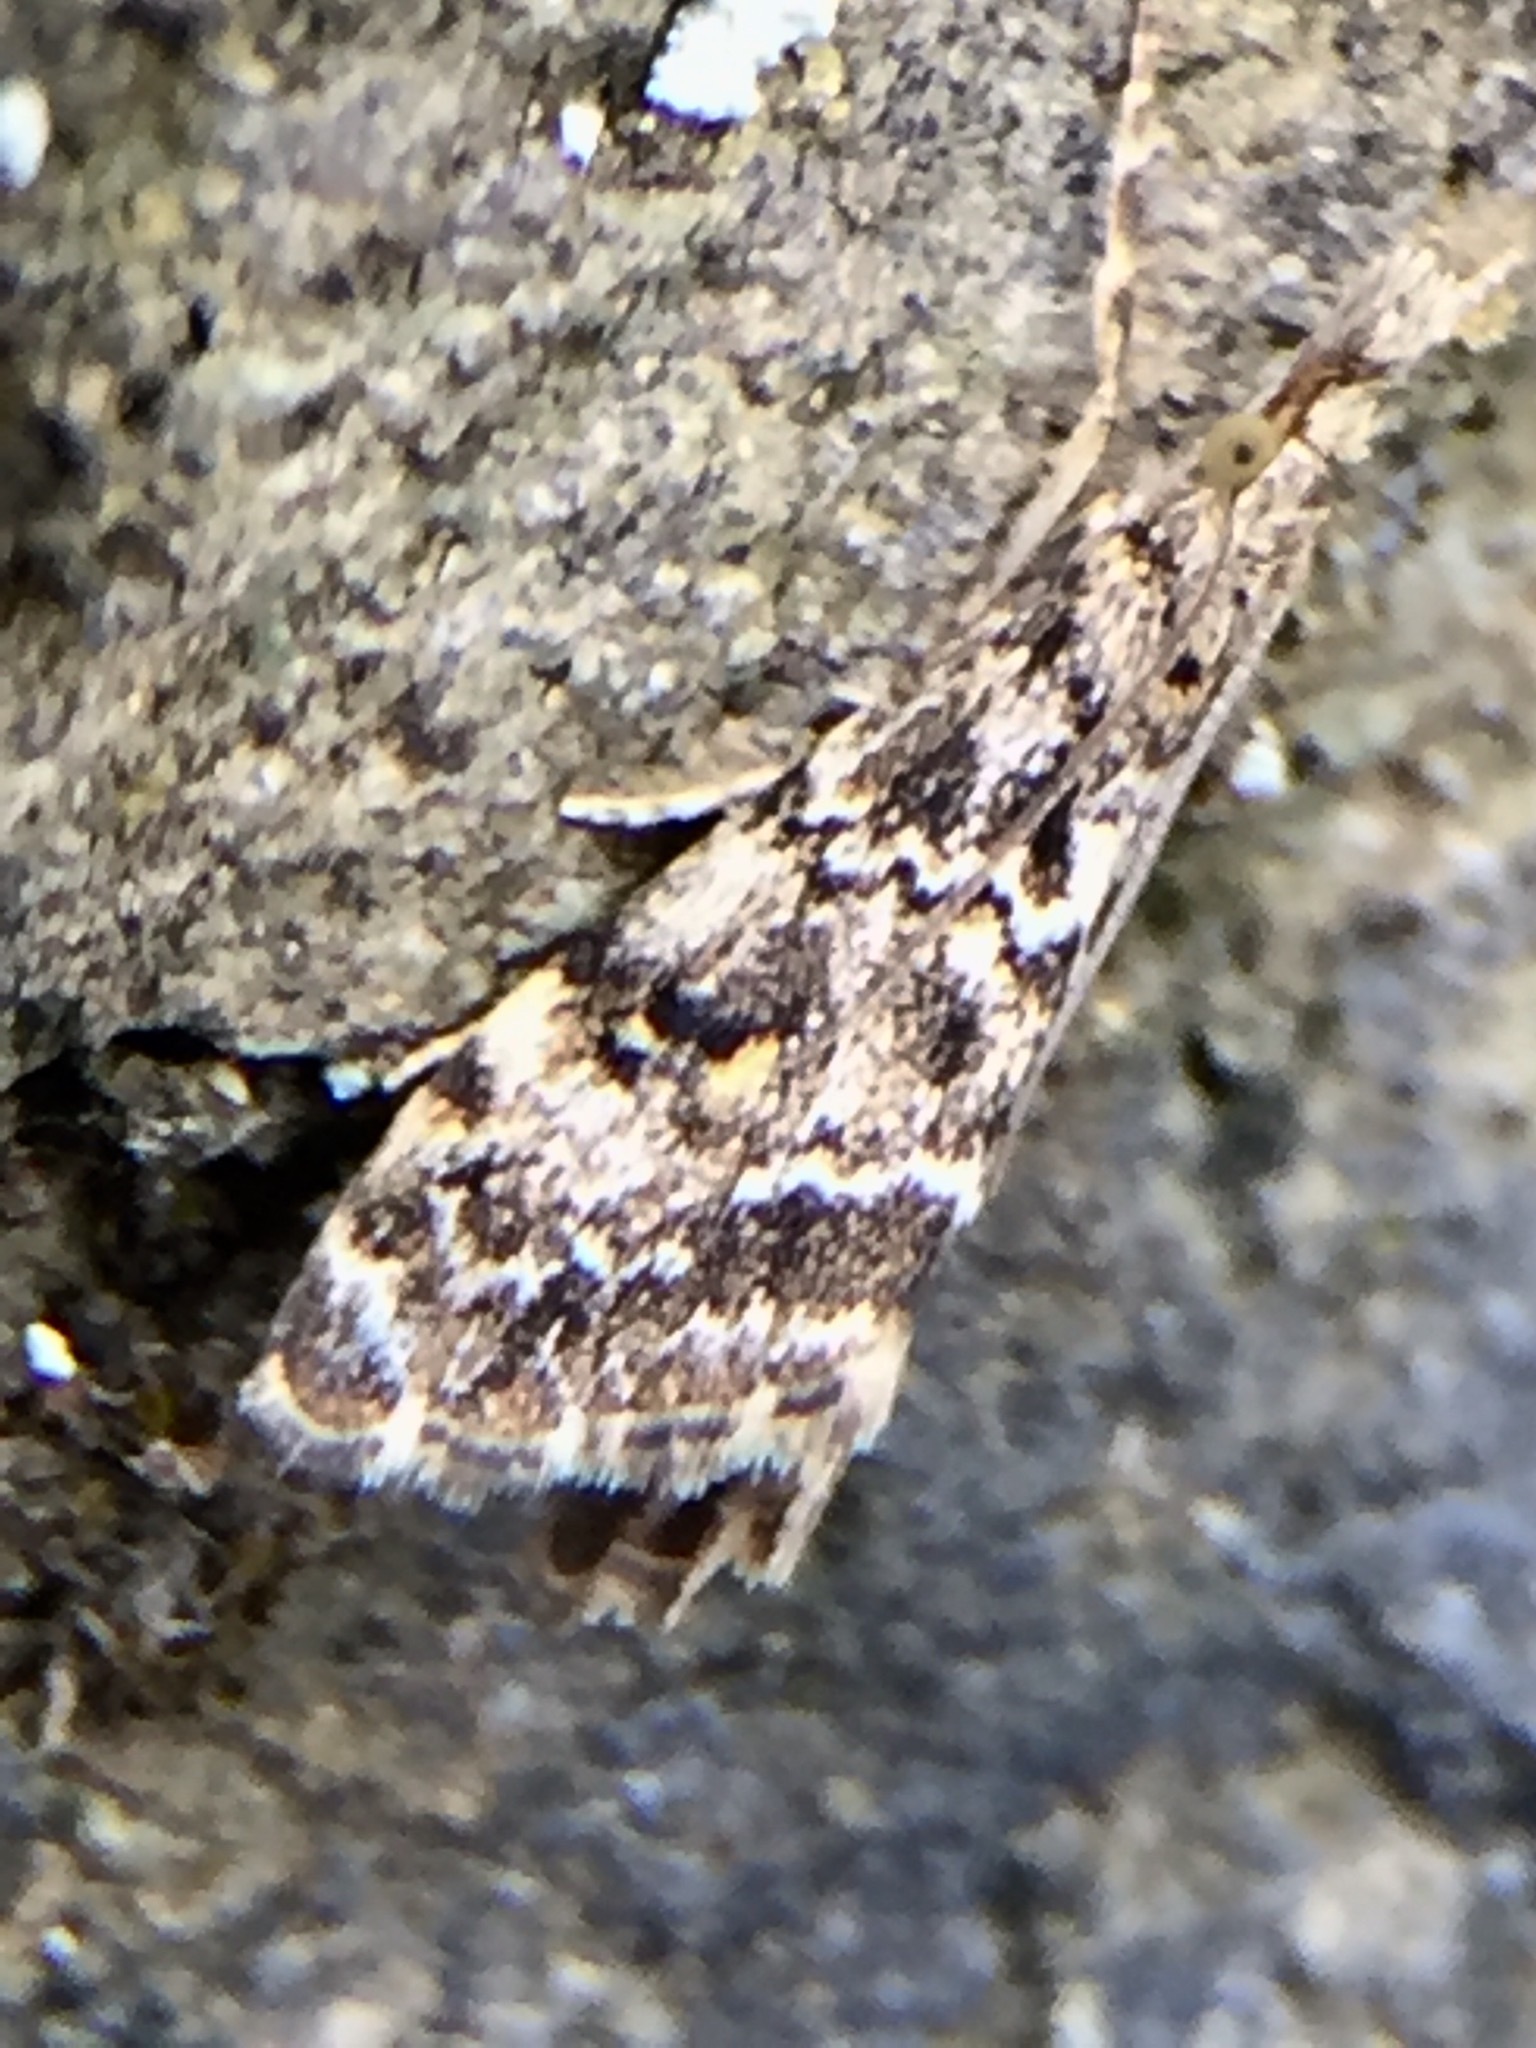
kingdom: Animalia
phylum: Arthropoda
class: Insecta
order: Lepidoptera
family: Crambidae
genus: Glaucocharis
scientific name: Glaucocharis elaina
